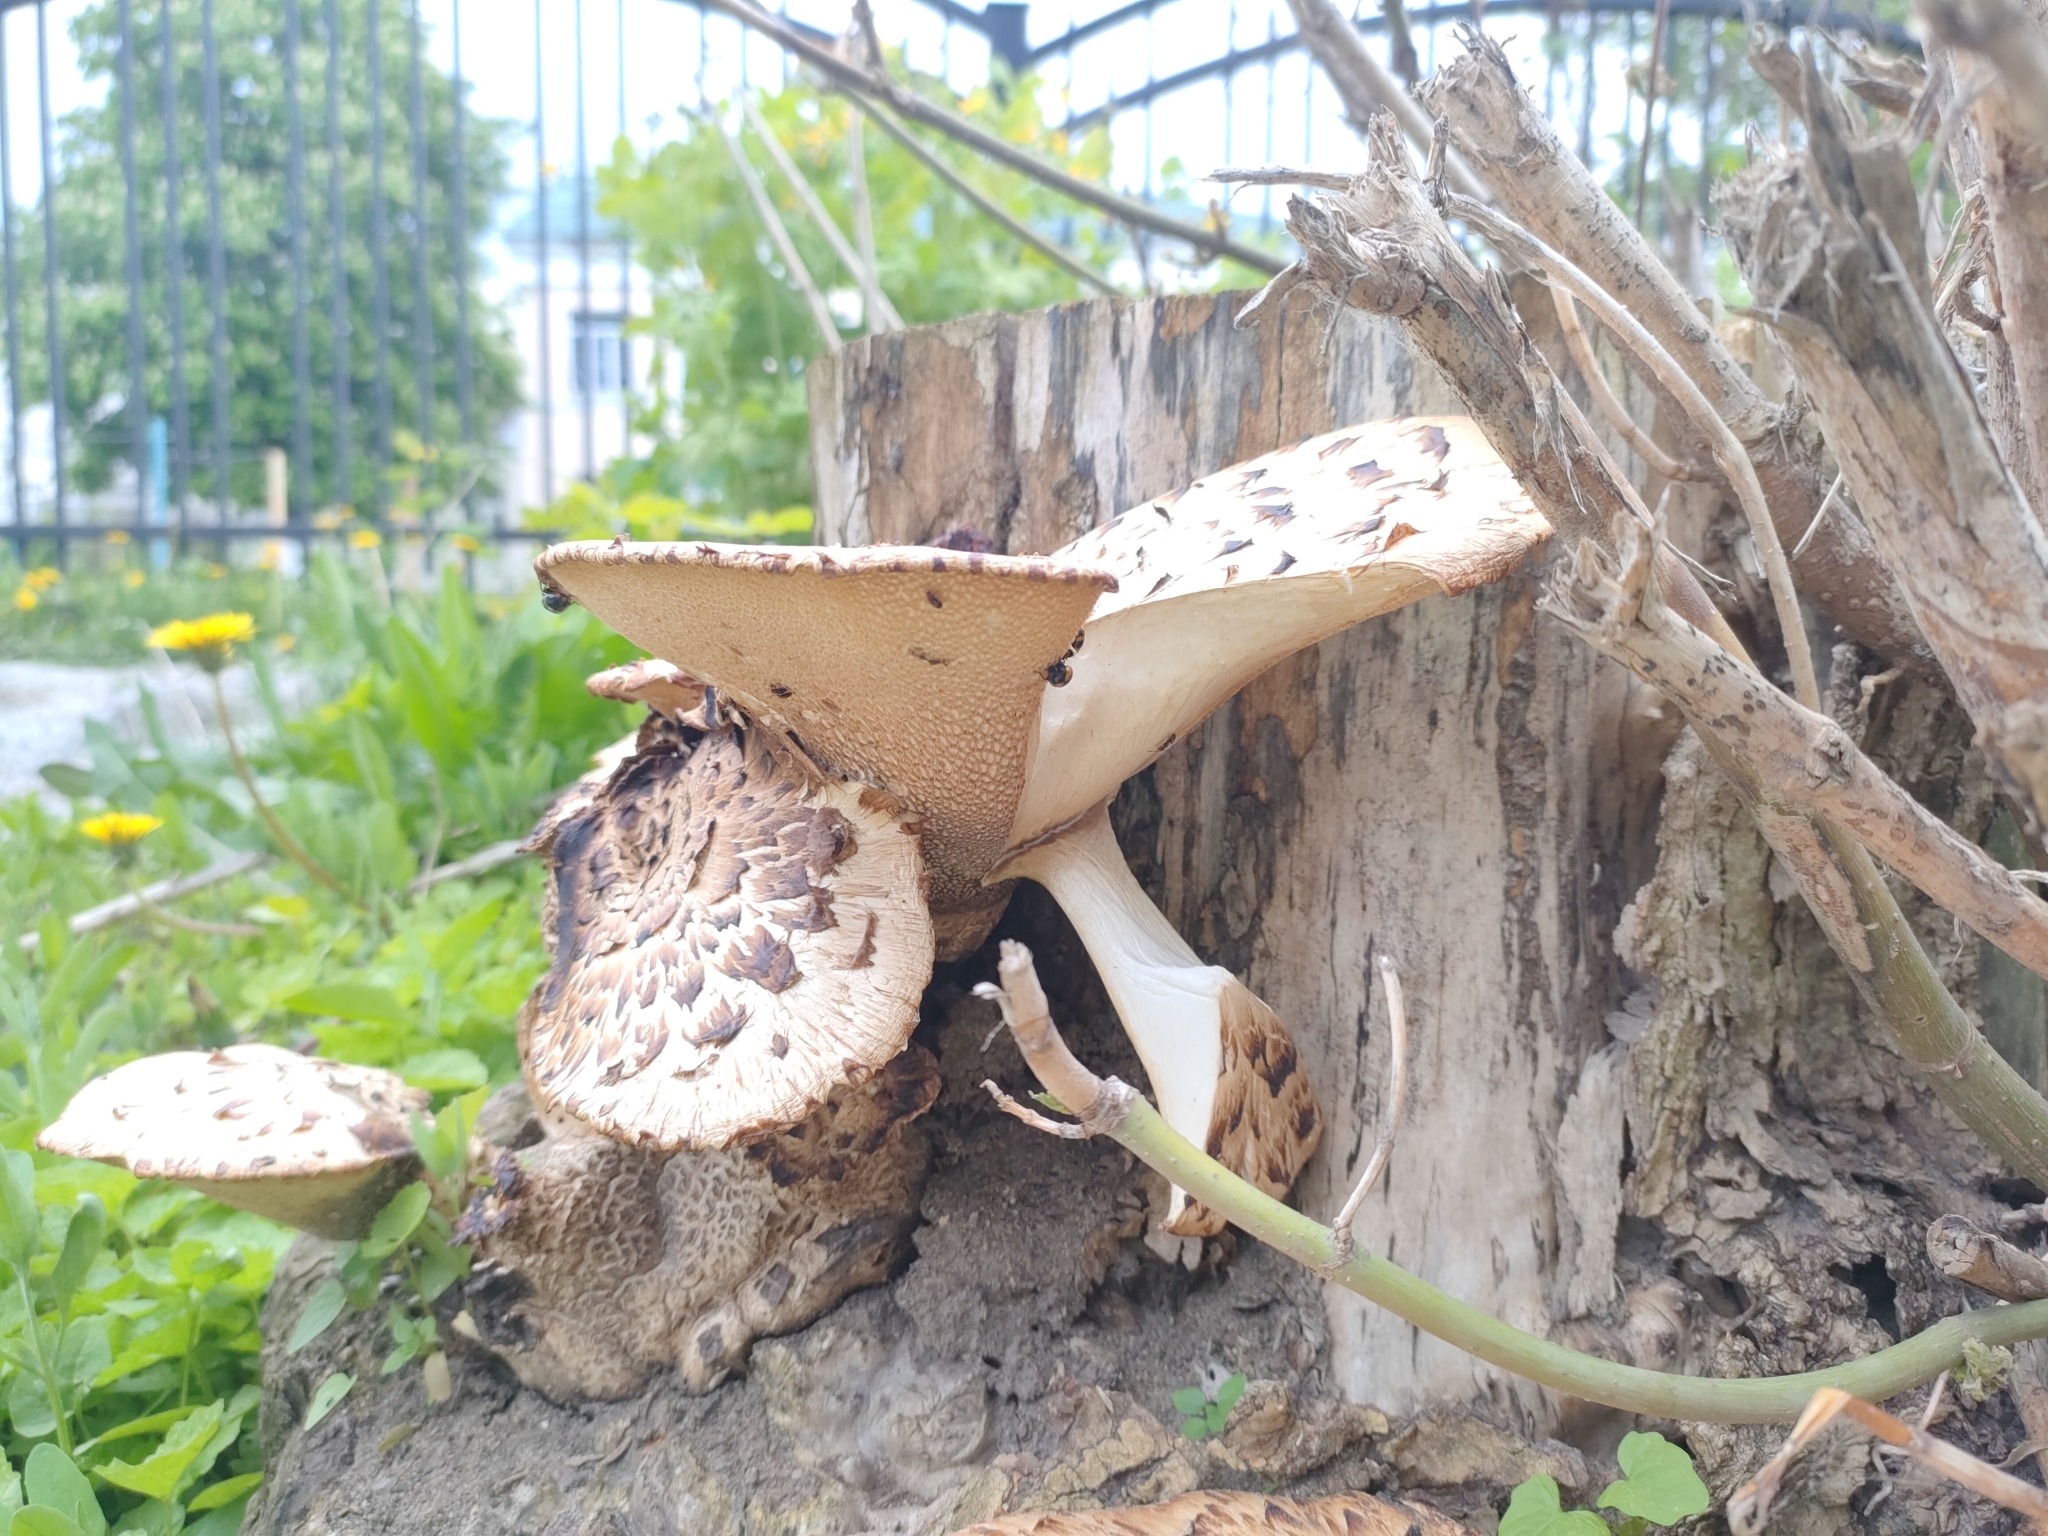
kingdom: Fungi
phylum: Basidiomycota
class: Agaricomycetes
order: Polyporales
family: Polyporaceae
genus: Cerioporus
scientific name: Cerioporus squamosus
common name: Dryad's saddle
